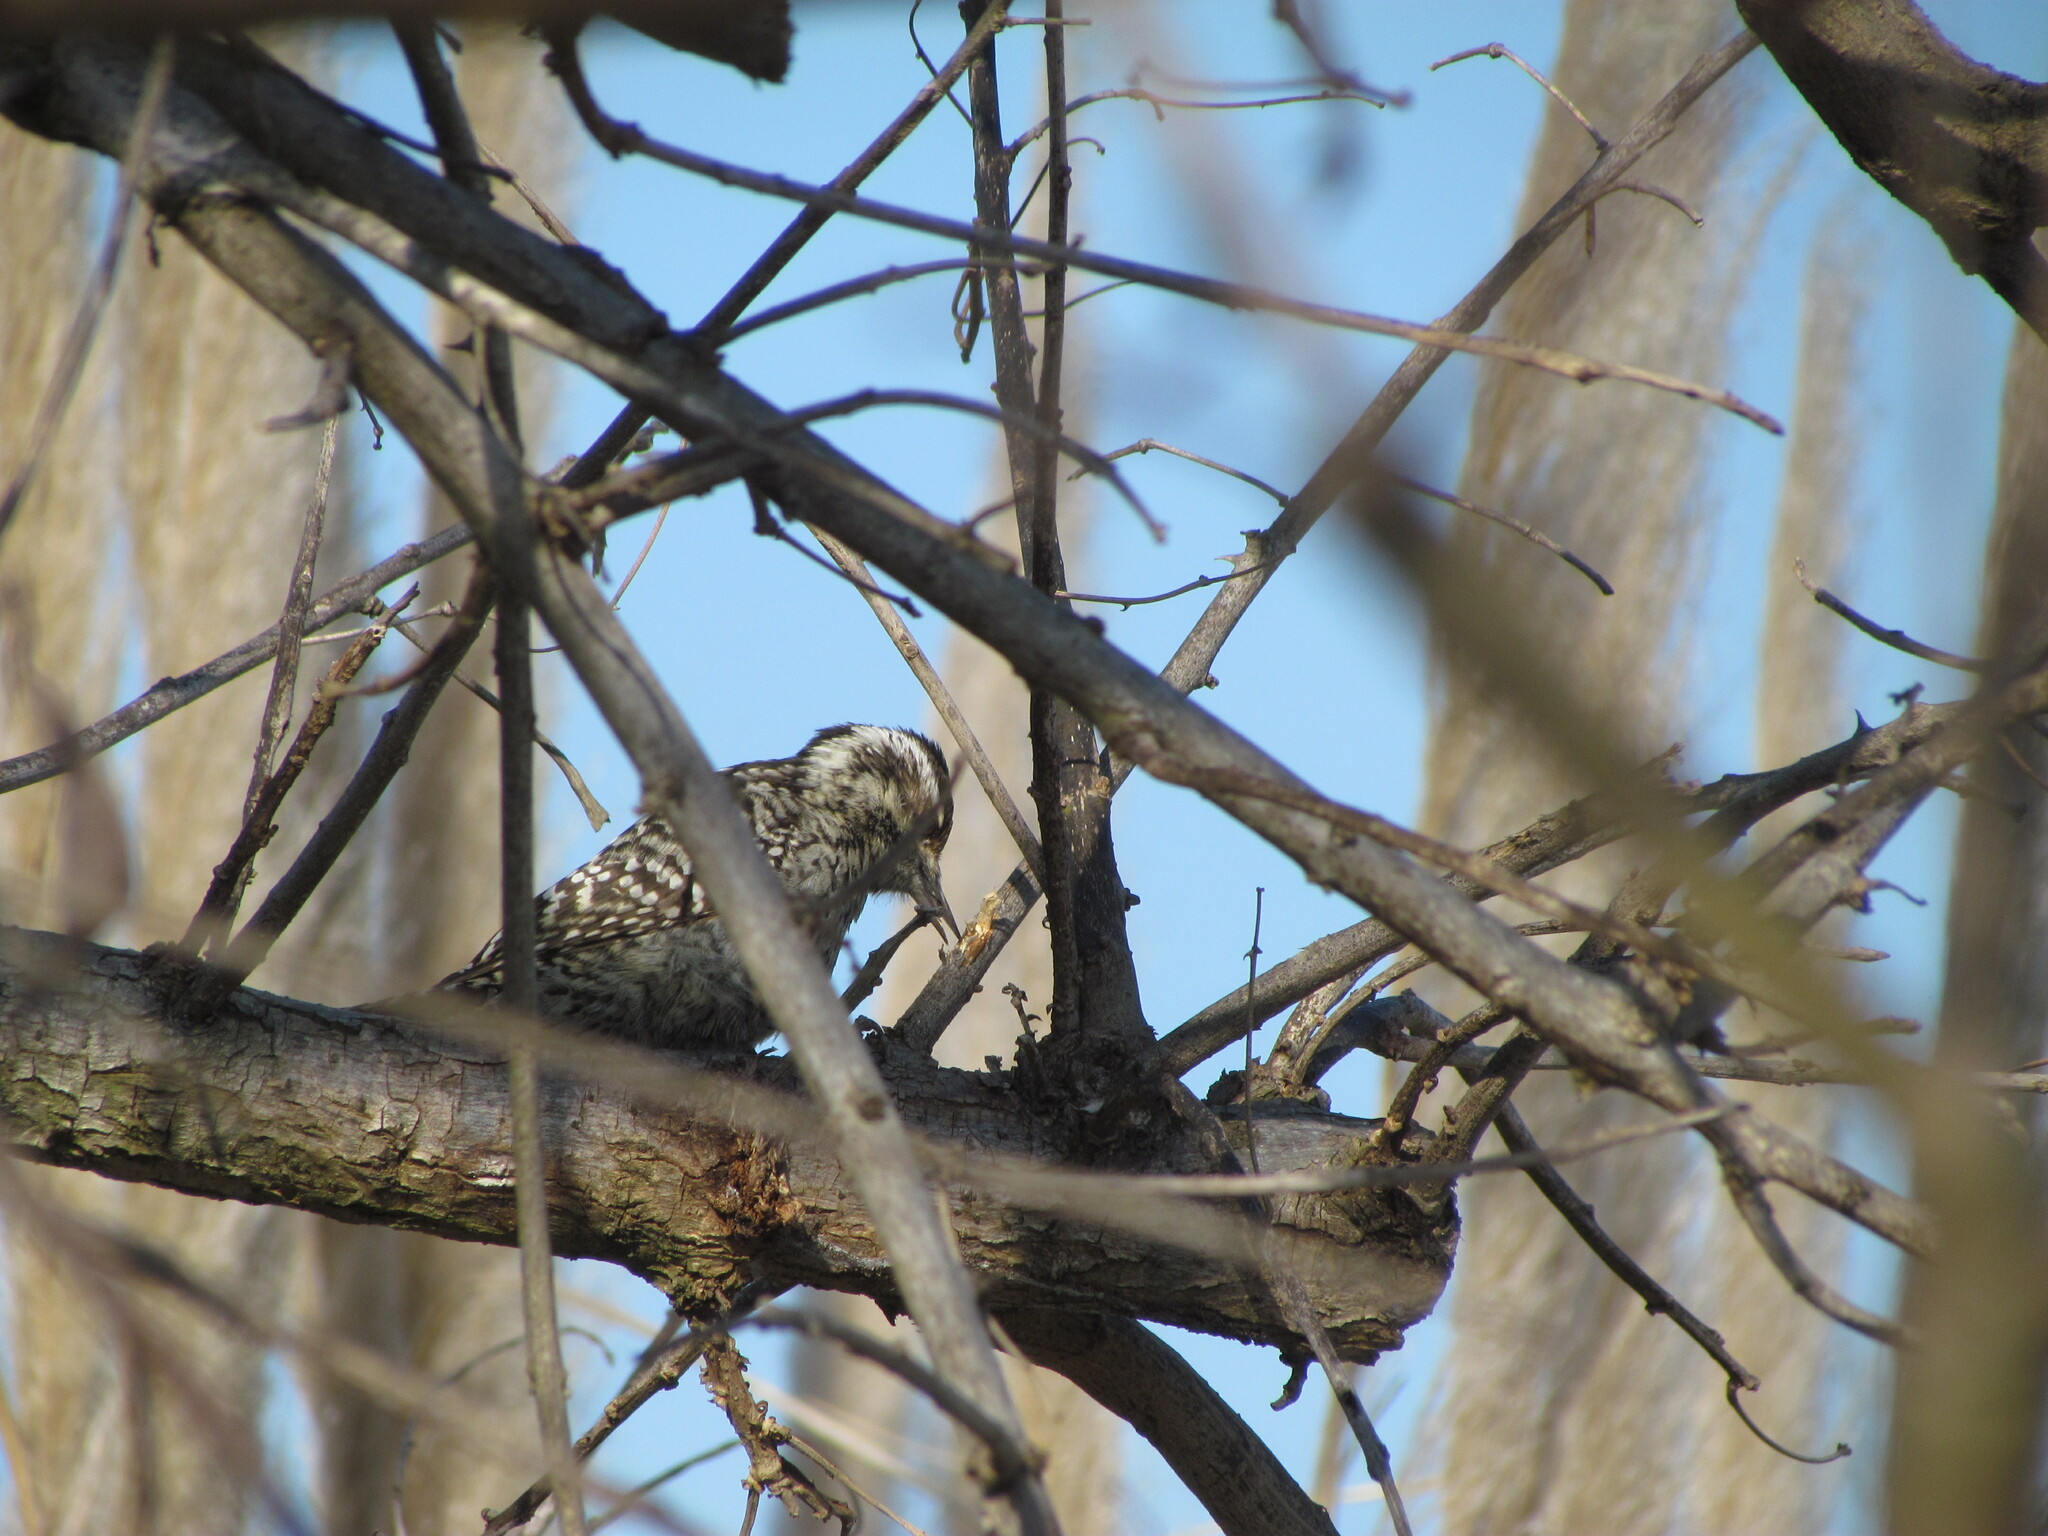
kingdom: Animalia
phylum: Chordata
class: Aves
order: Piciformes
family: Picidae
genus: Veniliornis
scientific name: Veniliornis mixtus
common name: Checkered woodpecker
